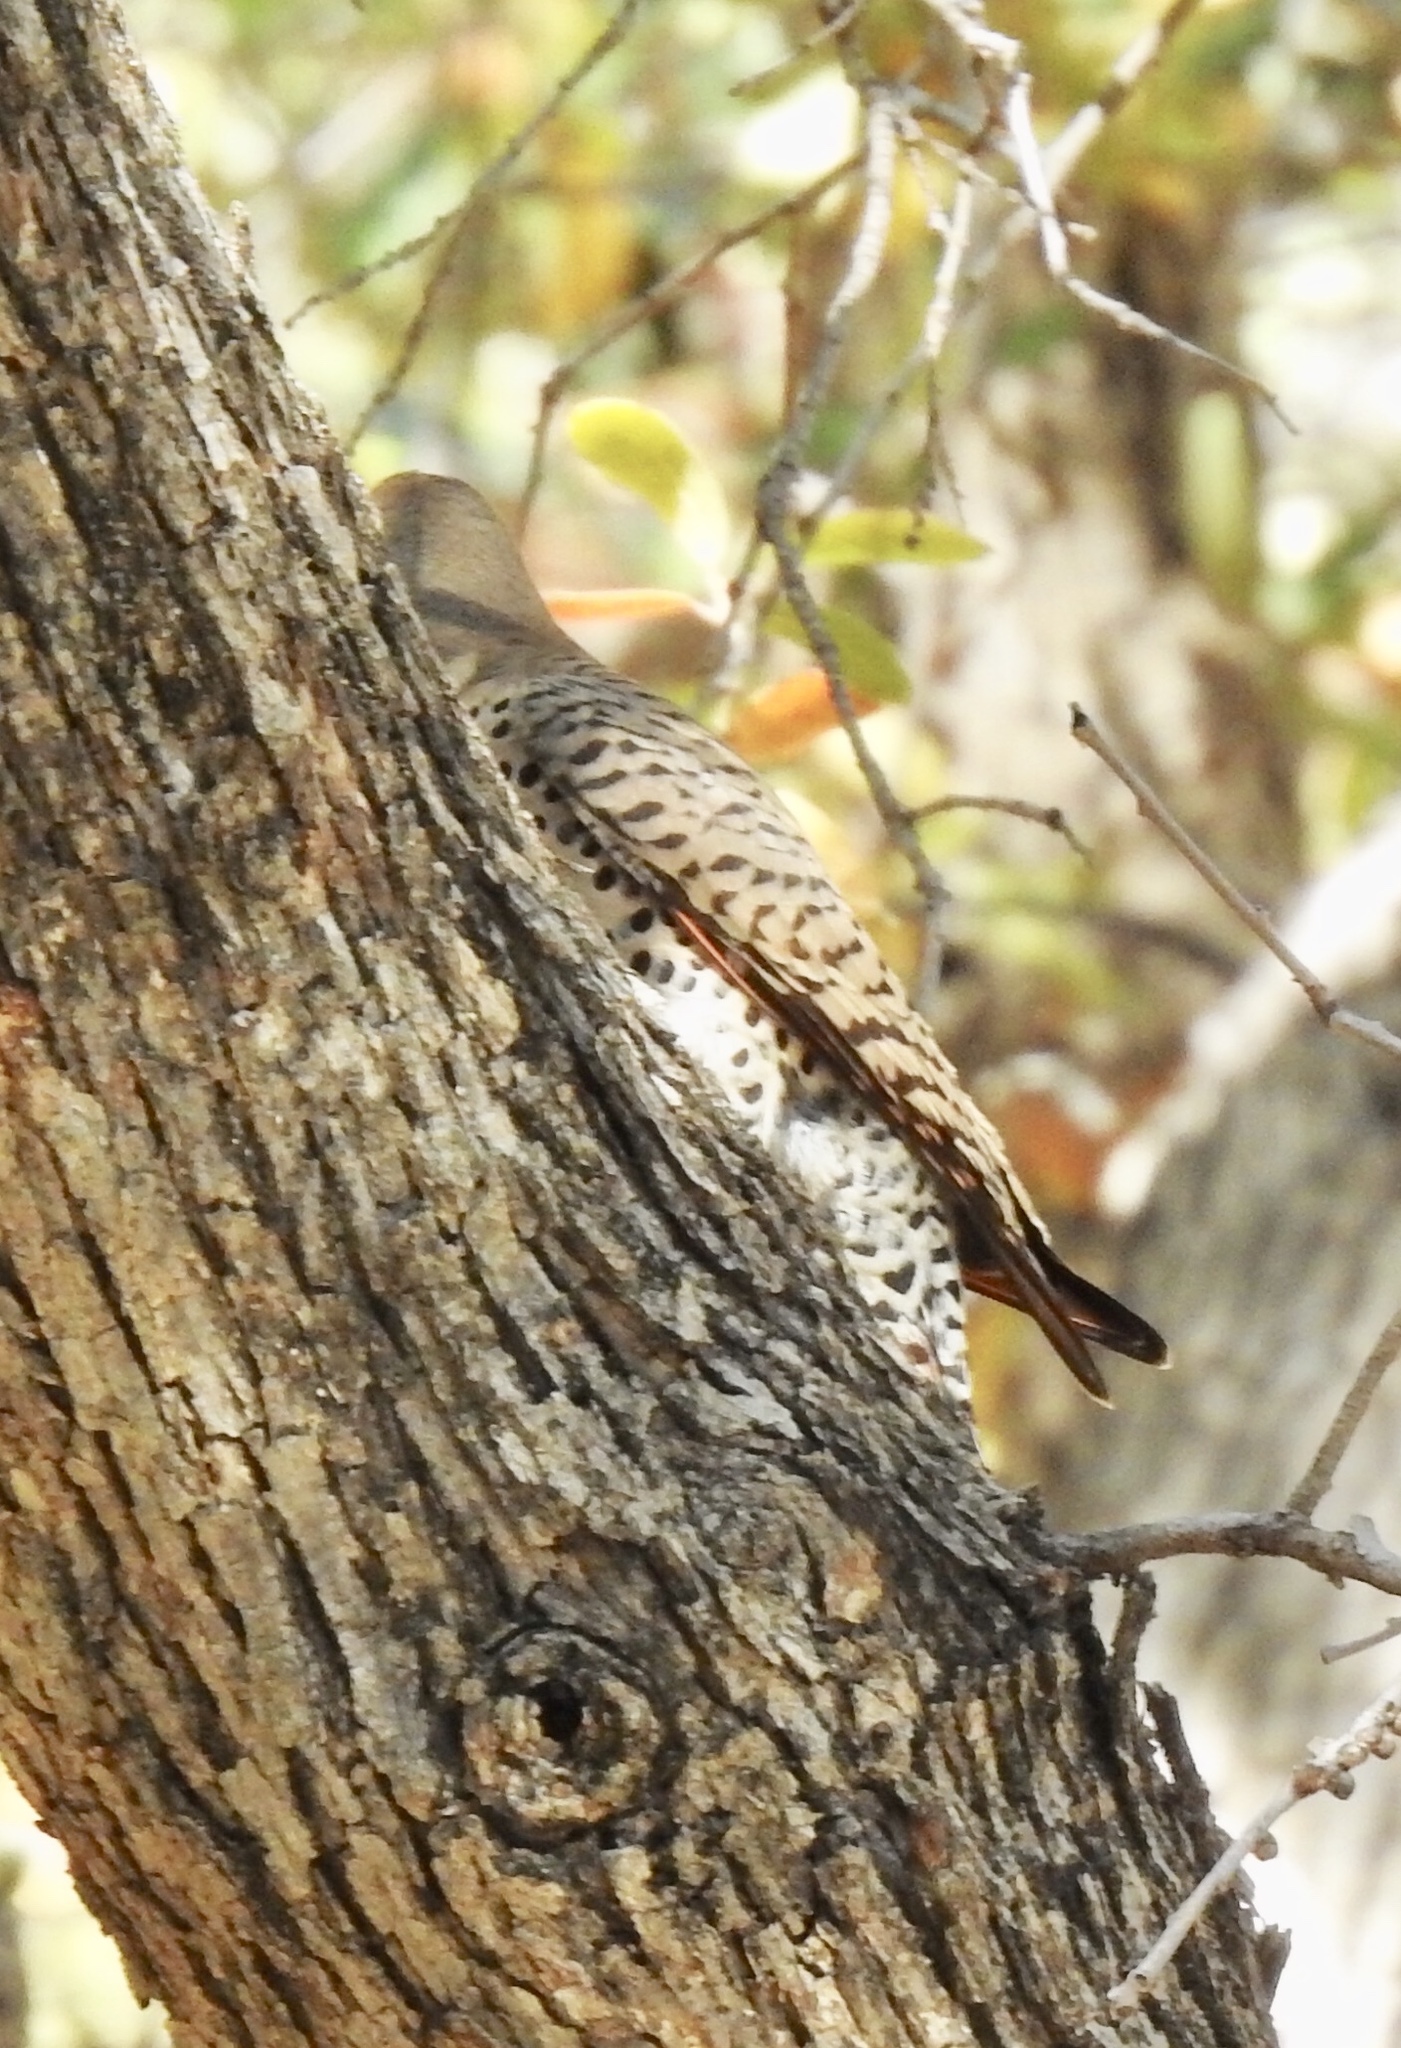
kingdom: Animalia
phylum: Chordata
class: Aves
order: Piciformes
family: Picidae
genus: Colaptes
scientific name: Colaptes auratus
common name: Northern flicker
